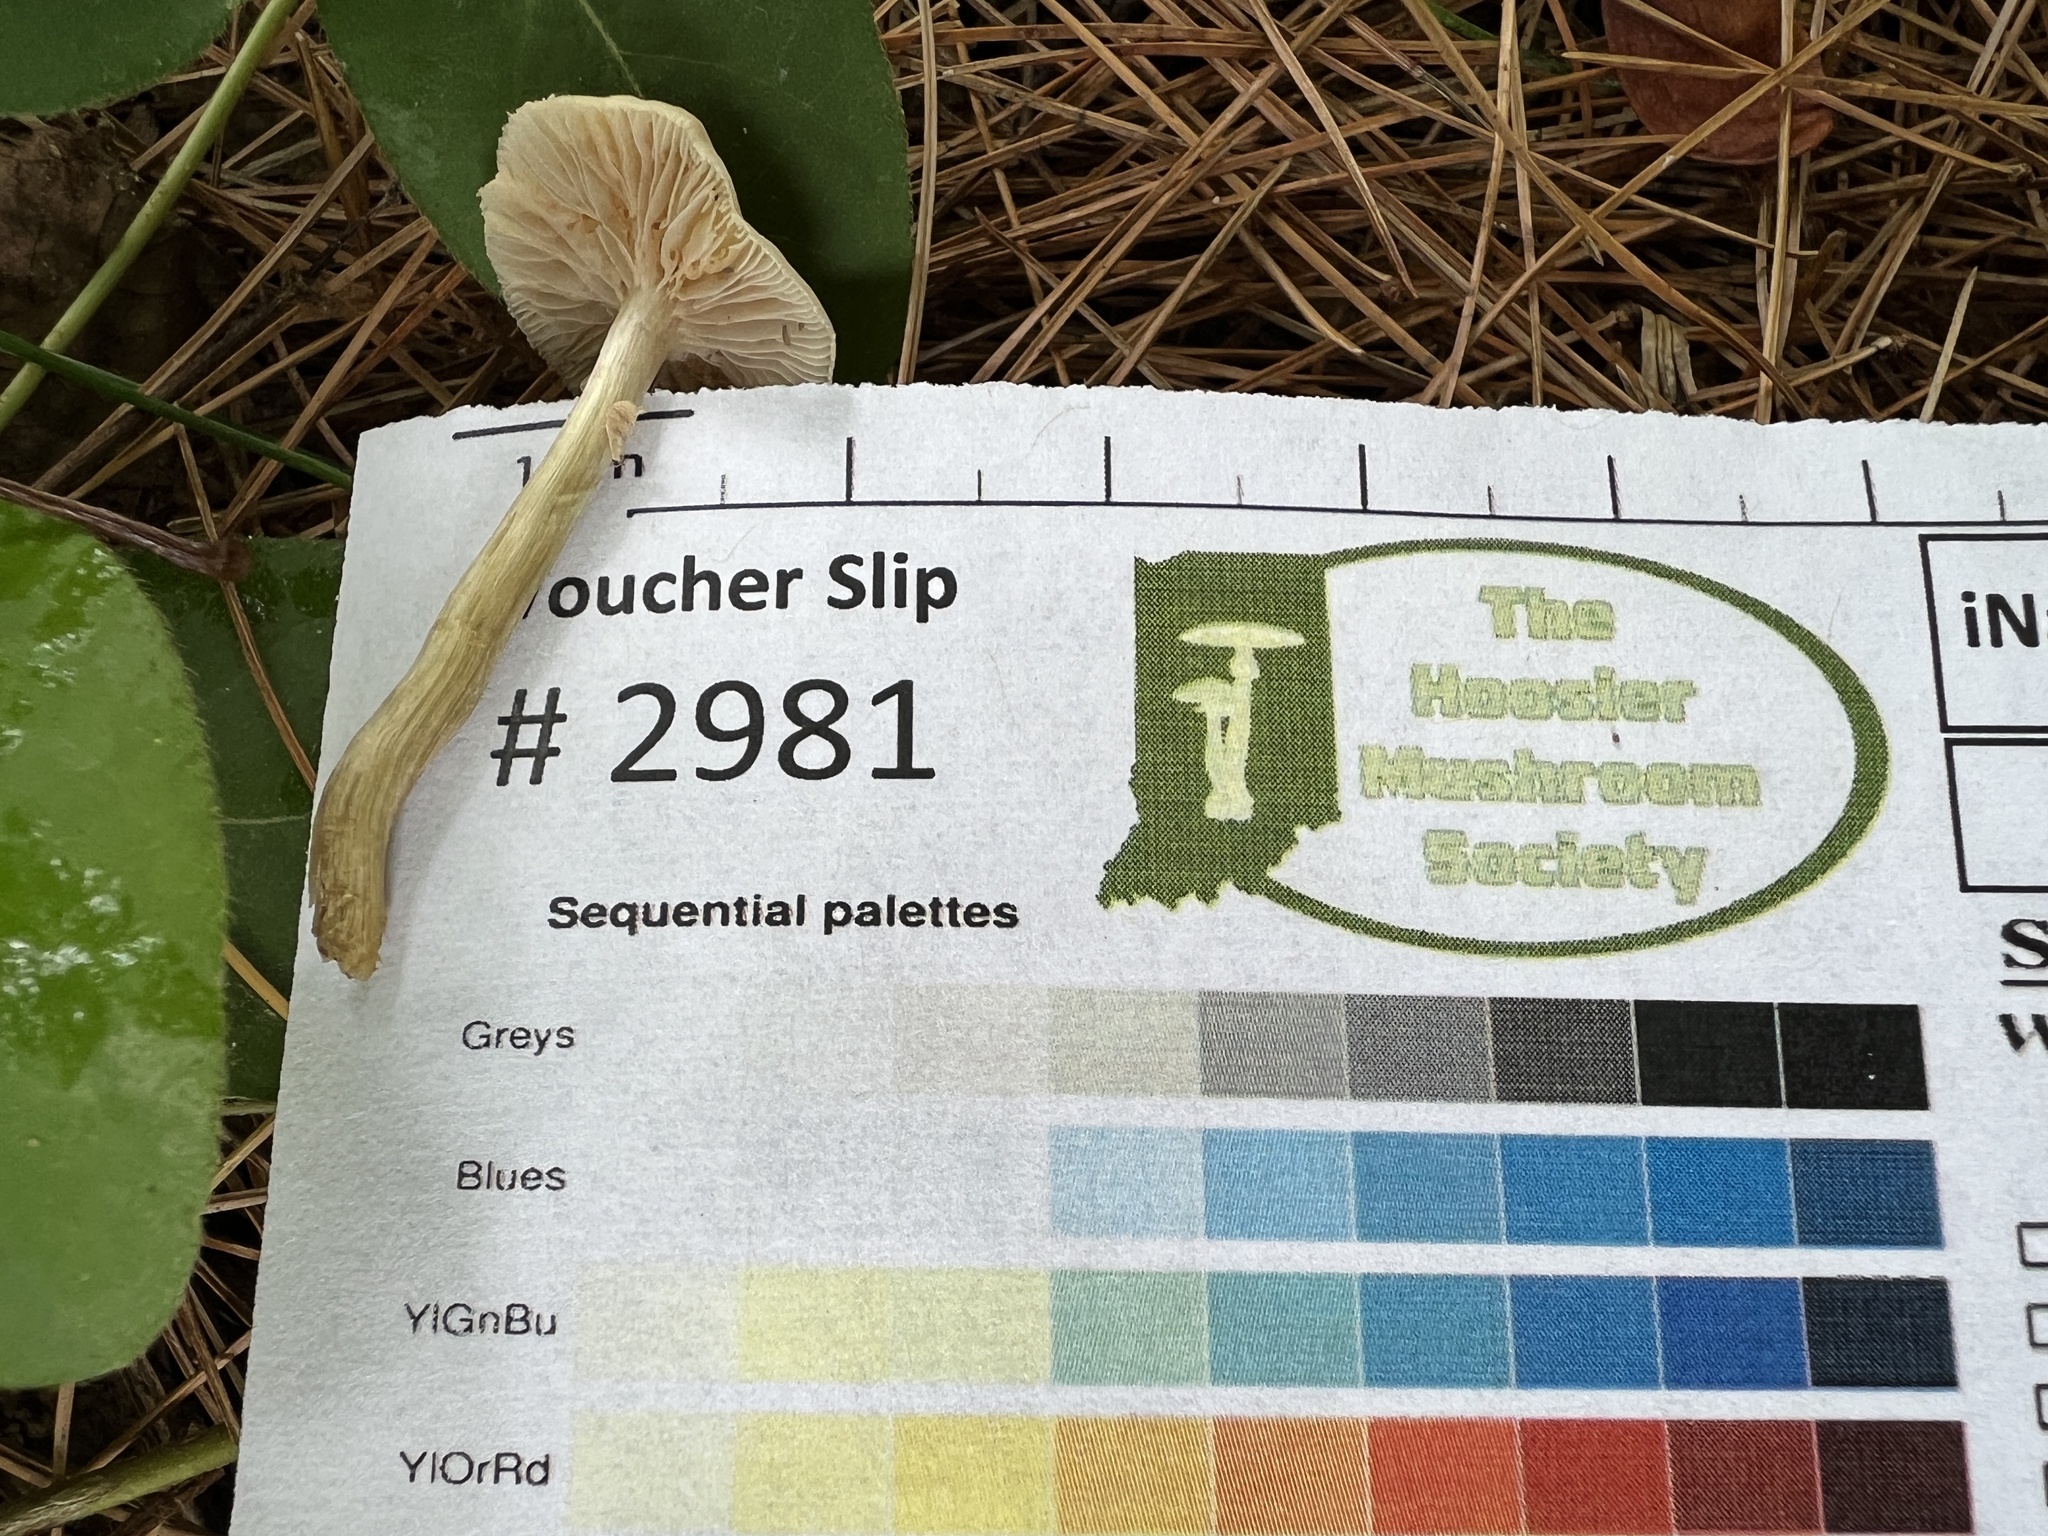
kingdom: Fungi
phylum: Basidiomycota
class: Agaricomycetes
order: Agaricales
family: Strophariaceae
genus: Agrocybe
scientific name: Agrocybe acericola
